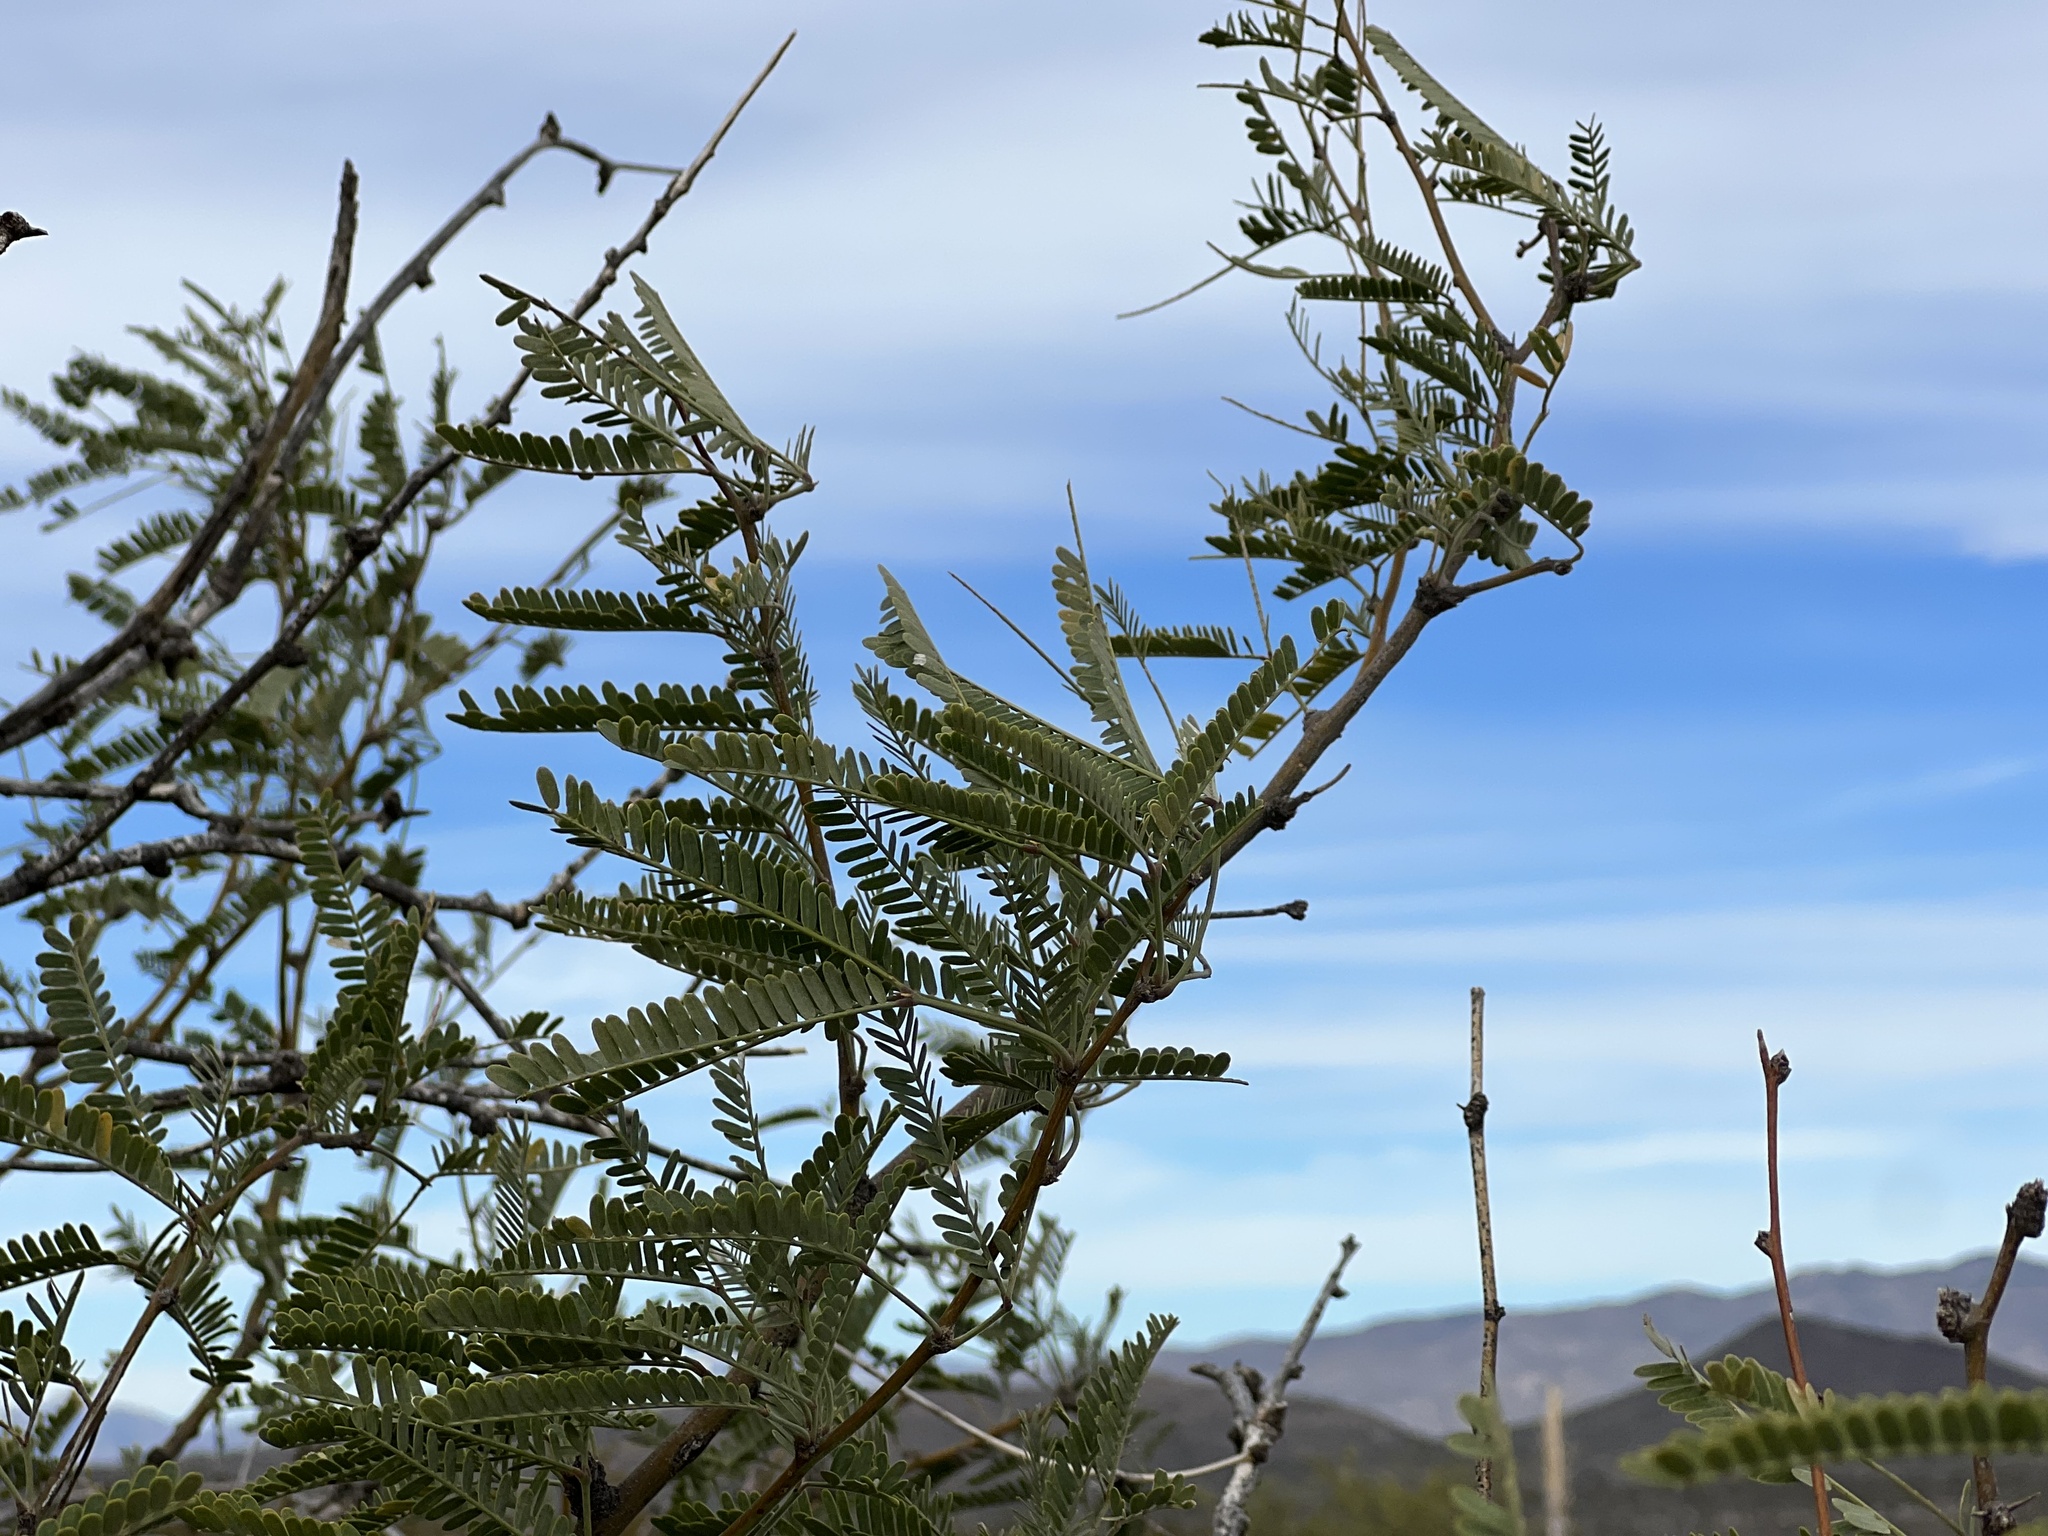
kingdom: Plantae
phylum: Tracheophyta
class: Magnoliopsida
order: Fabales
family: Fabaceae
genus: Prosopis
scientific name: Prosopis velutina
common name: Velvet mesquite
